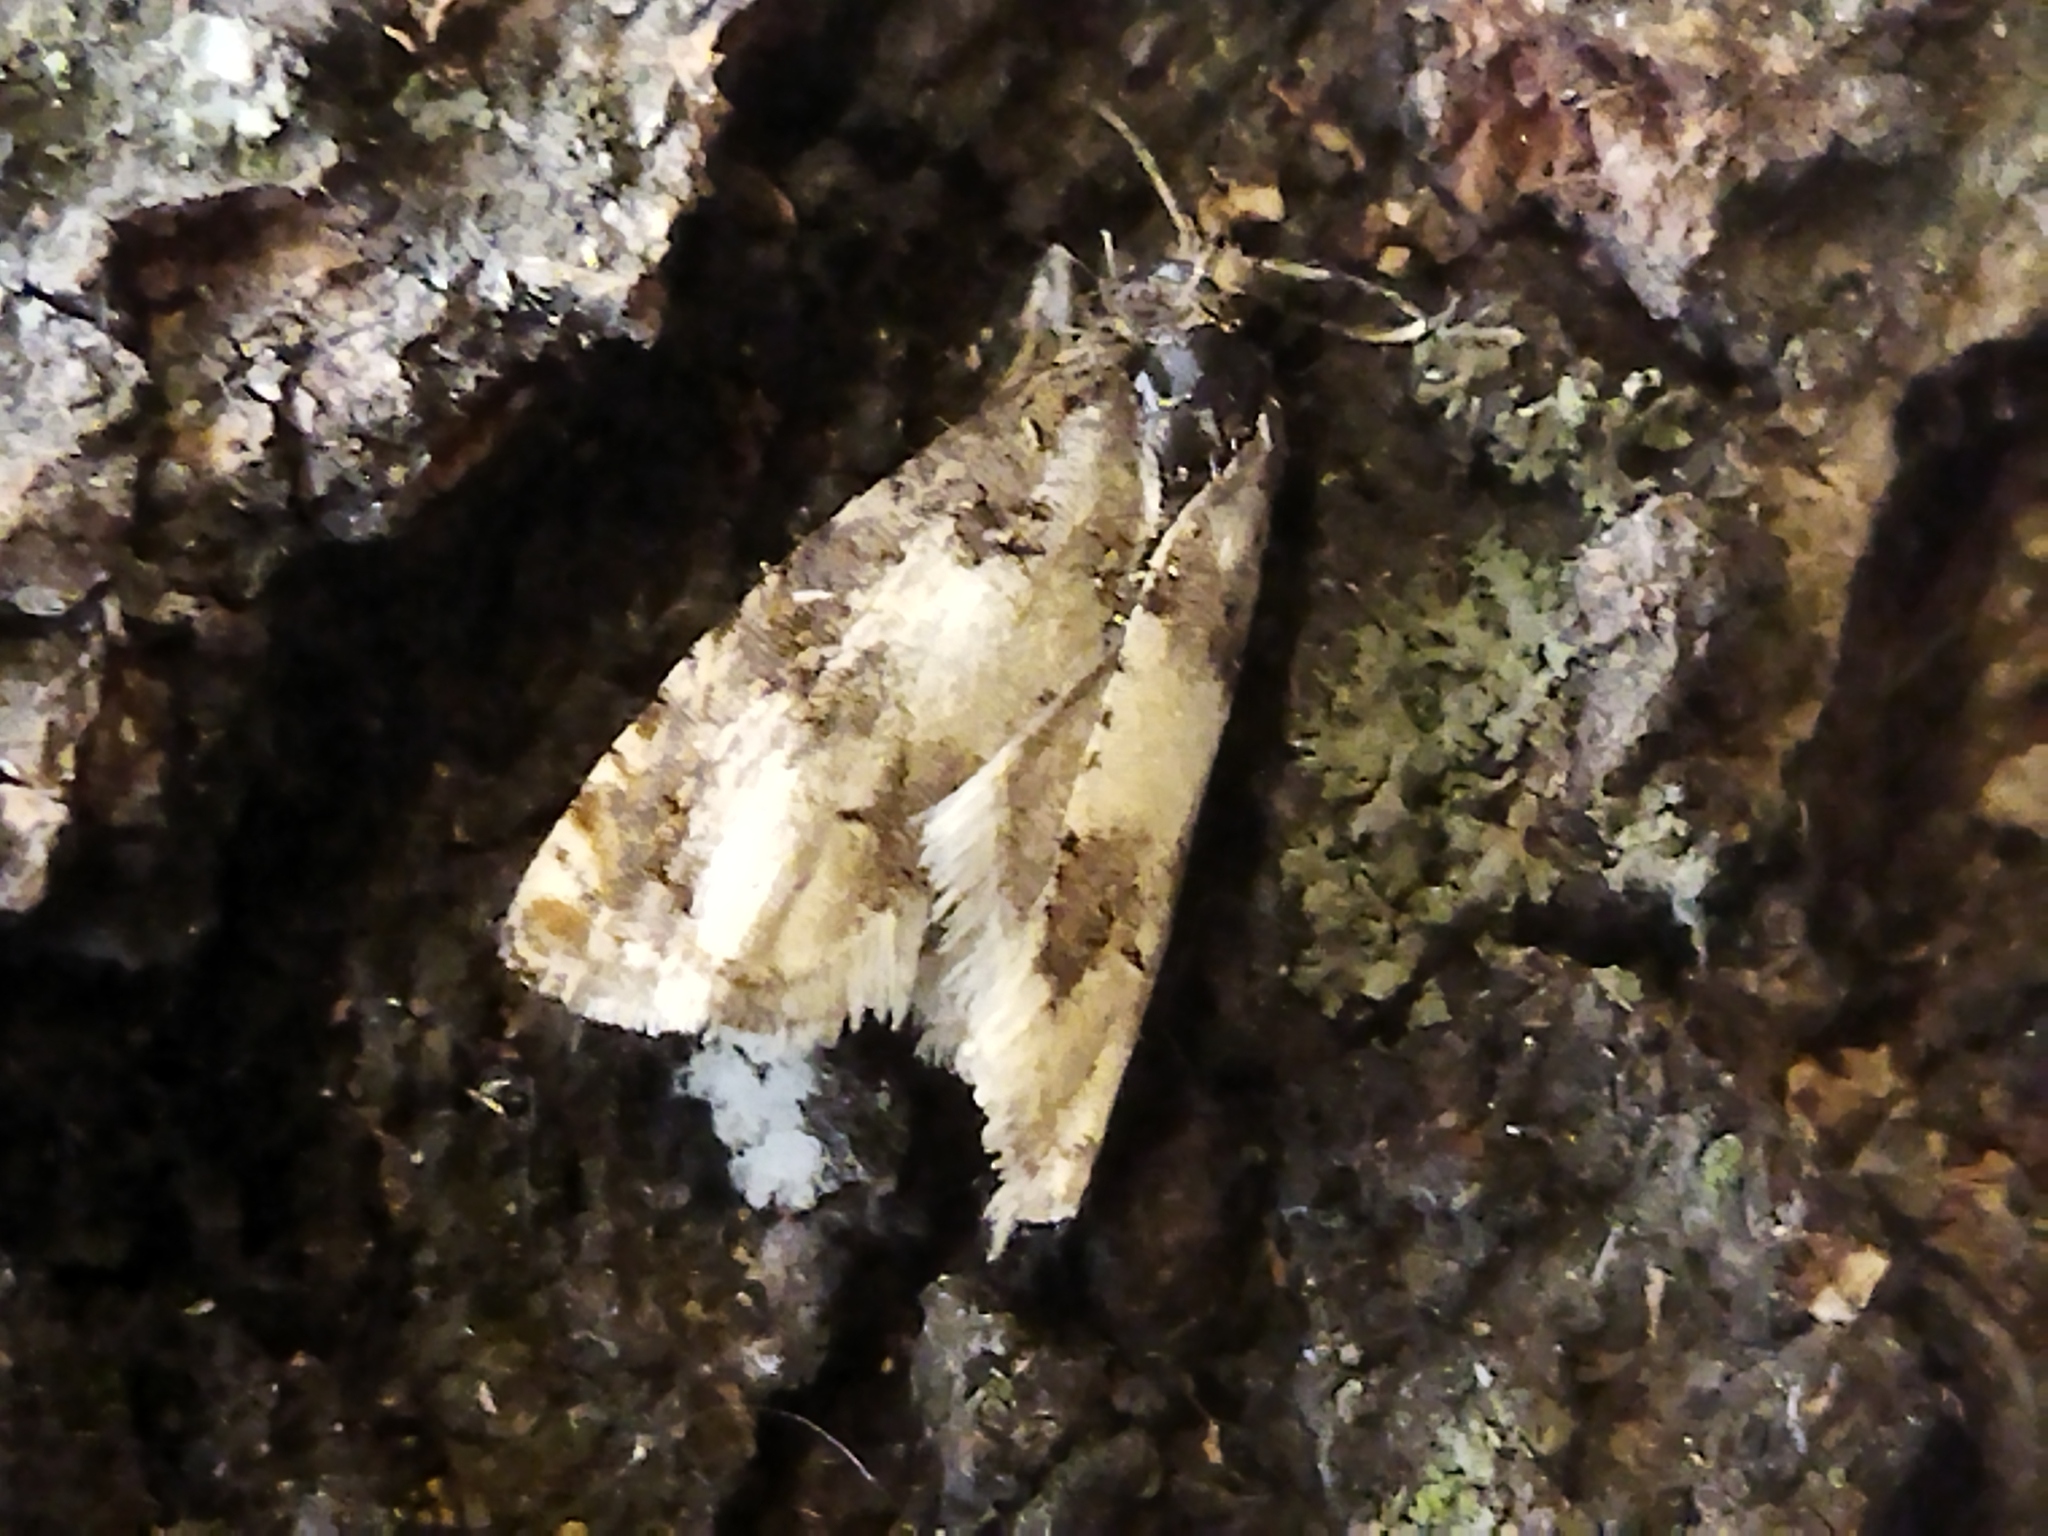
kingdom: Animalia
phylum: Arthropoda
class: Insecta
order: Lepidoptera
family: Tortricidae
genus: Epiblema
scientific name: Epiblema scutulana
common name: Thistle bell
